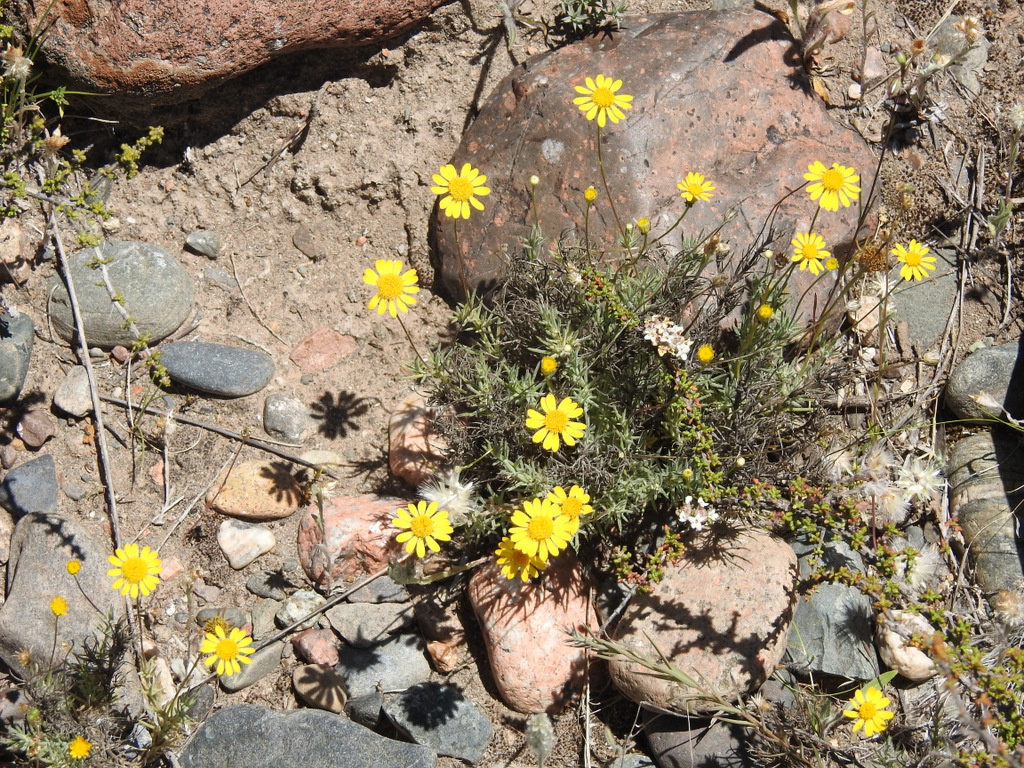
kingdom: Plantae
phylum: Tracheophyta
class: Magnoliopsida
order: Asterales
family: Asteraceae
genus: Thymophylla
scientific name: Thymophylla pentachaeta
